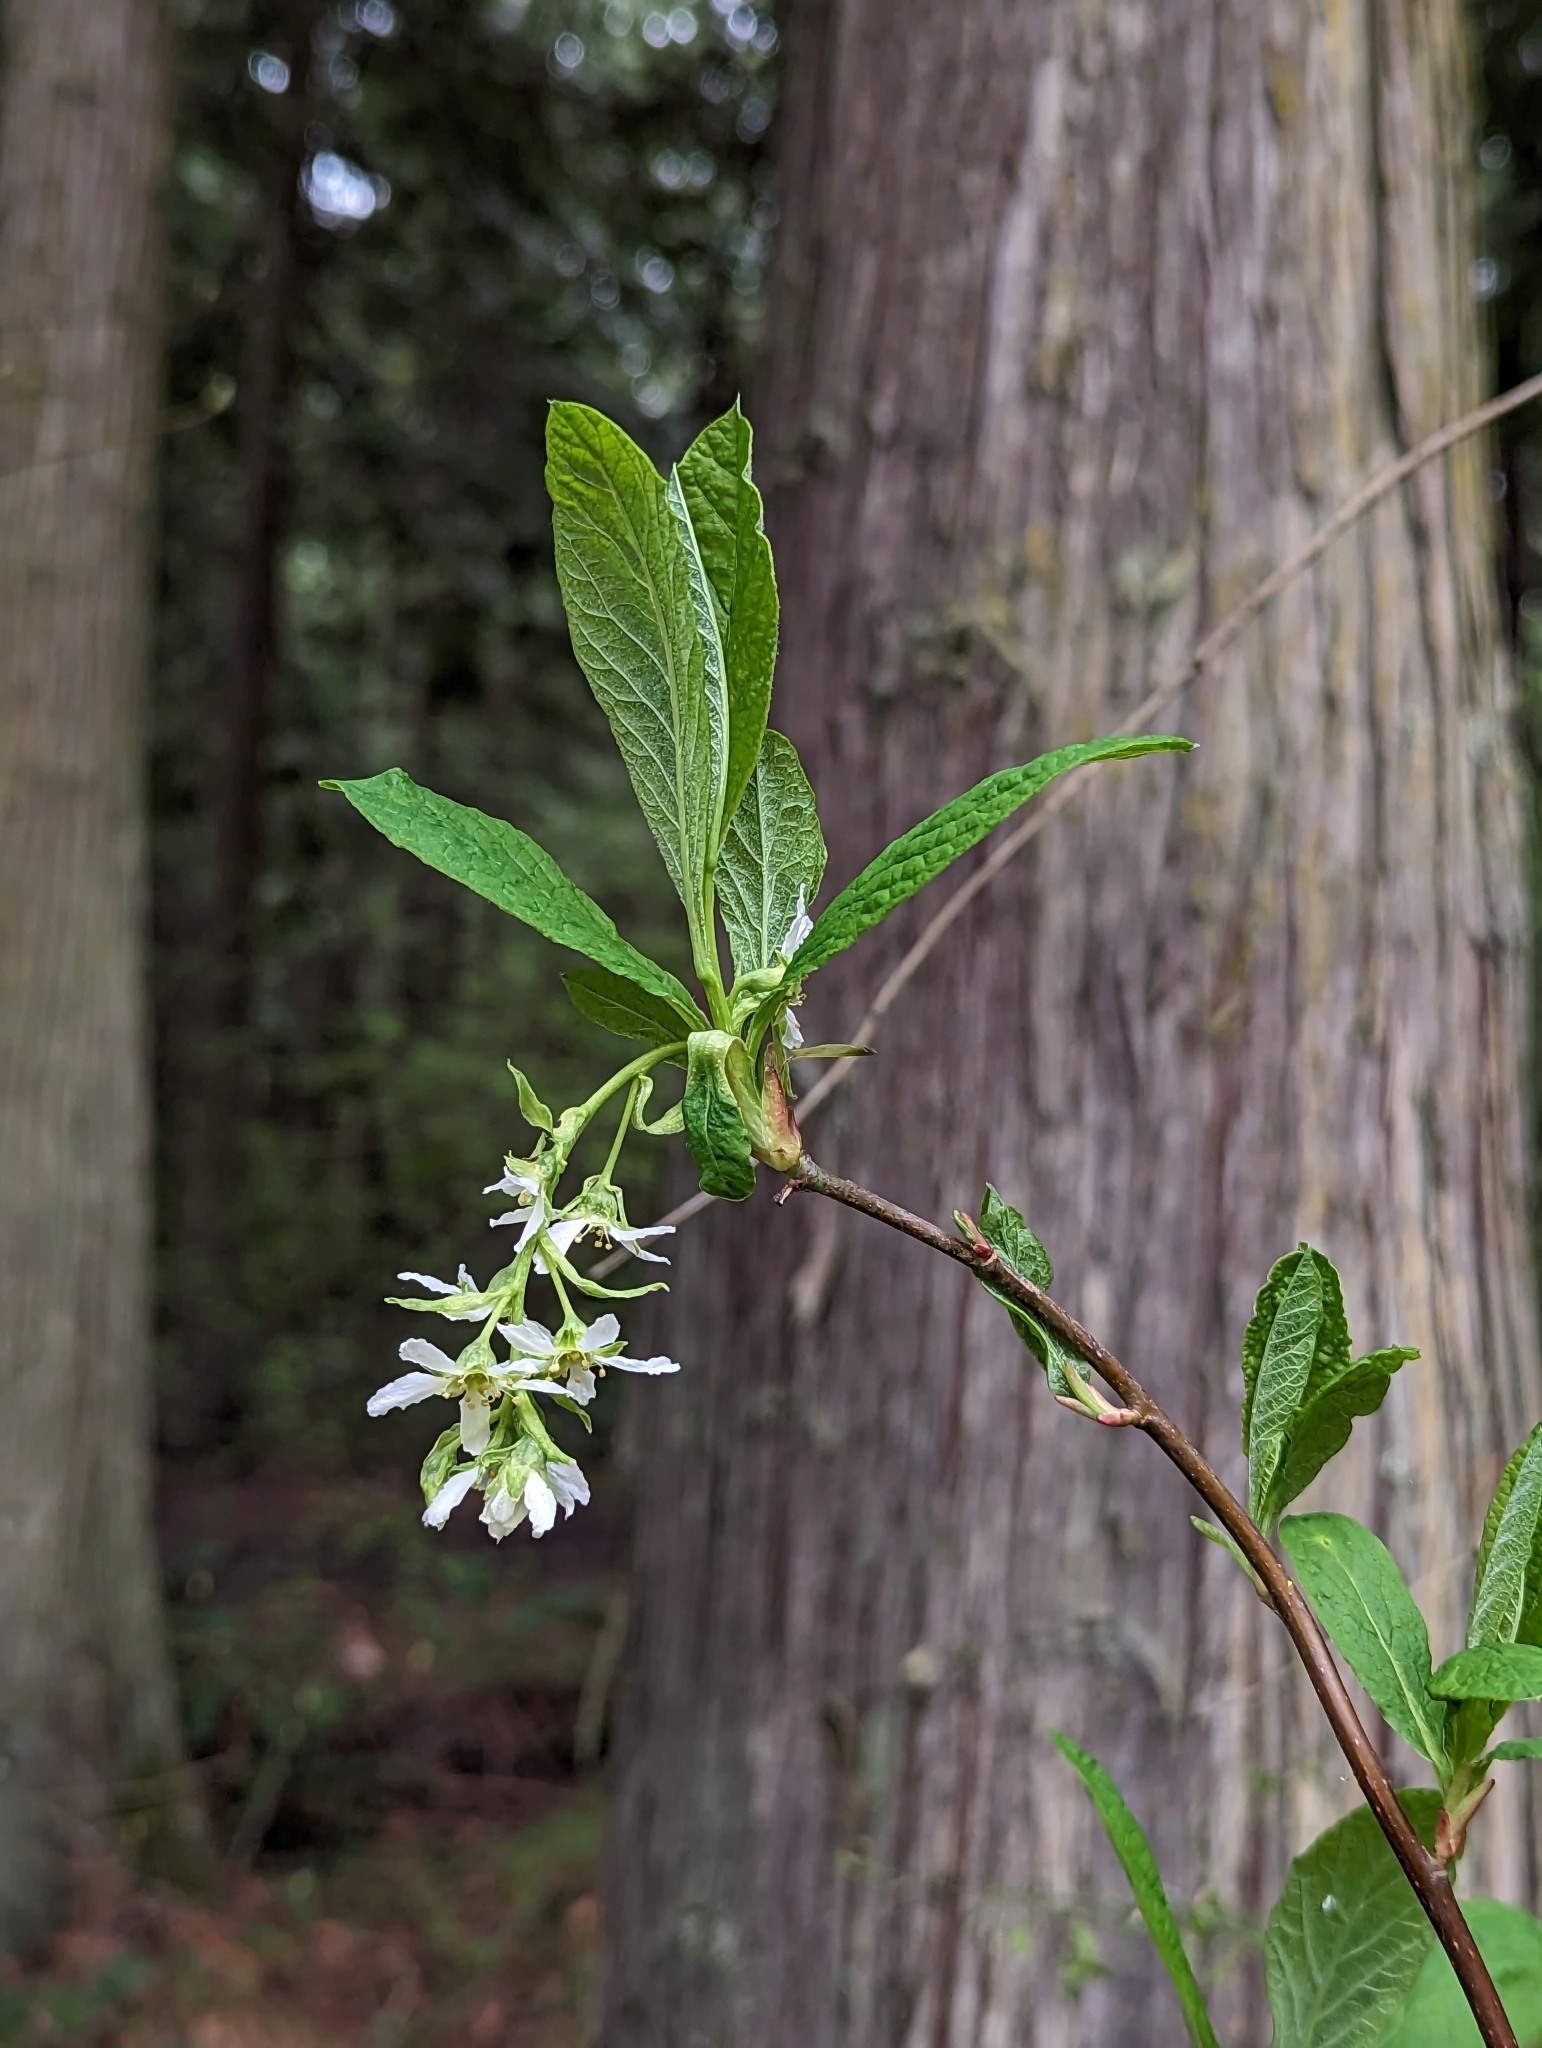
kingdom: Plantae
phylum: Tracheophyta
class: Magnoliopsida
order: Rosales
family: Rosaceae
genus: Oemleria
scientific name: Oemleria cerasiformis
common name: Osoberry
